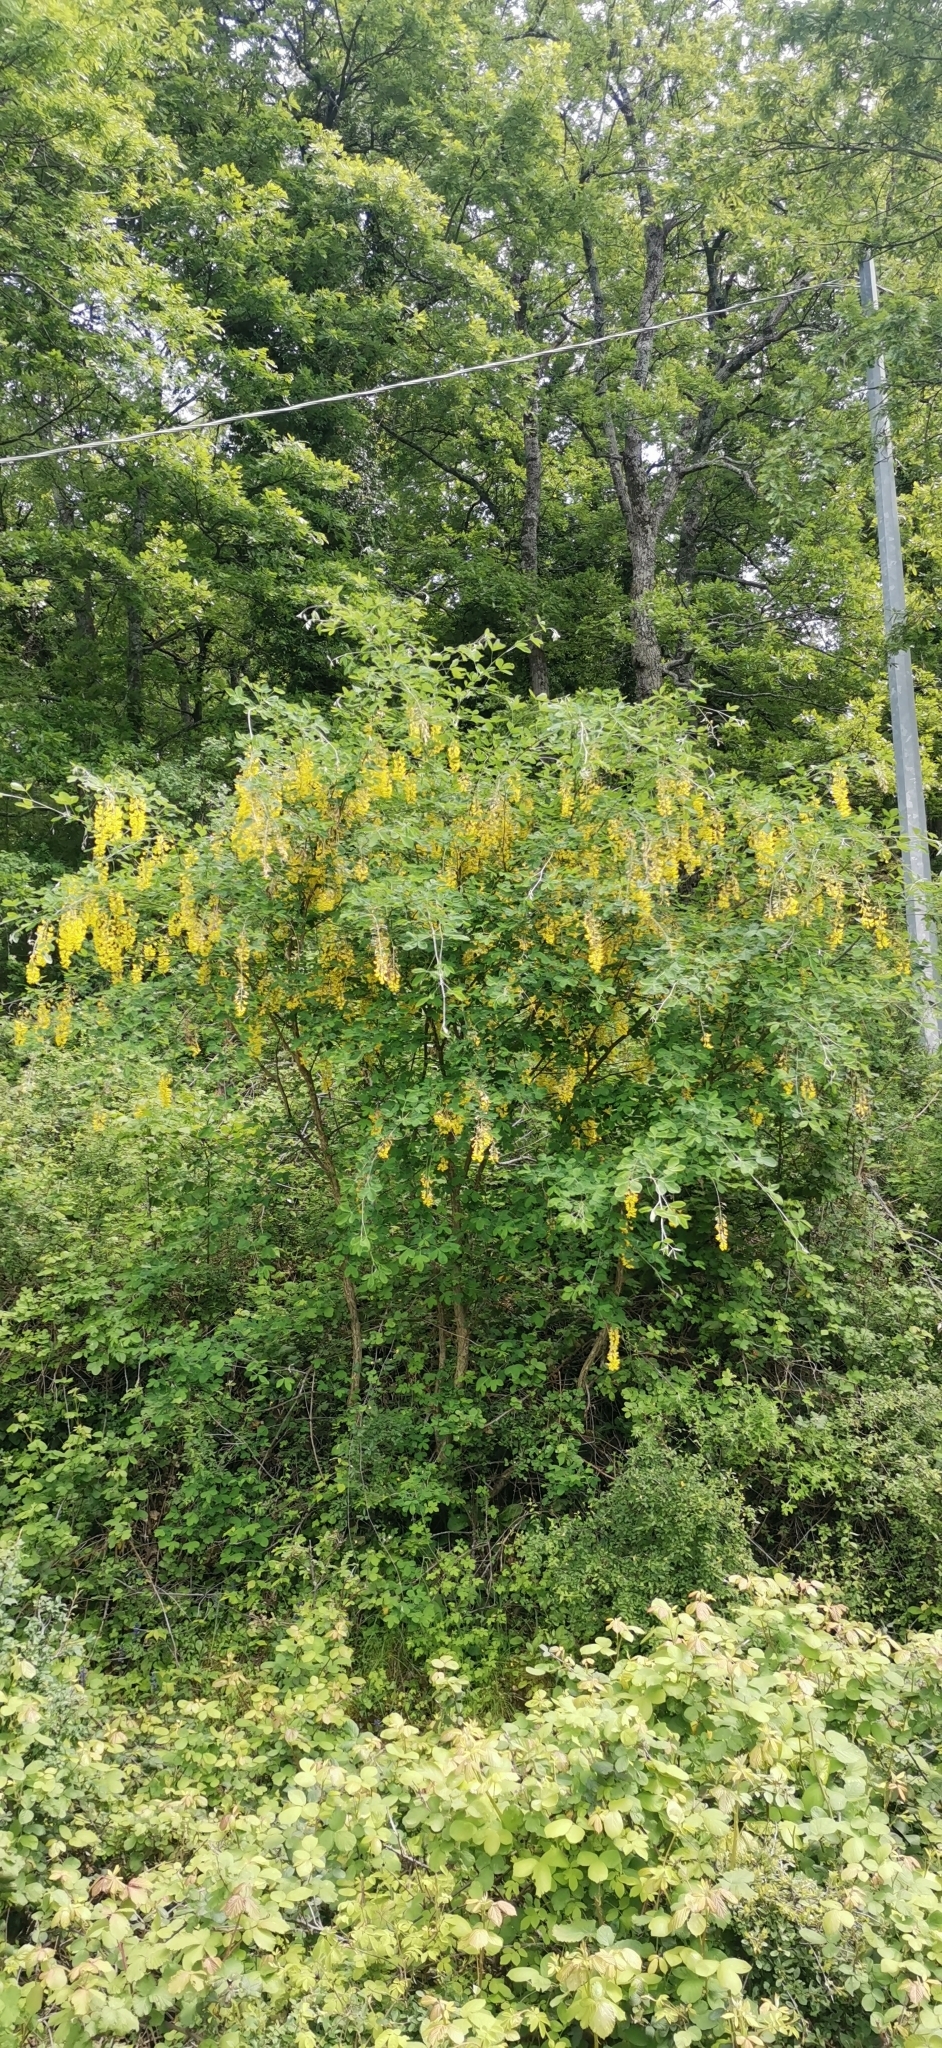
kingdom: Plantae
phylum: Tracheophyta
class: Magnoliopsida
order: Fabales
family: Fabaceae
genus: Laburnum
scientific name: Laburnum anagyroides
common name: Laburnum
